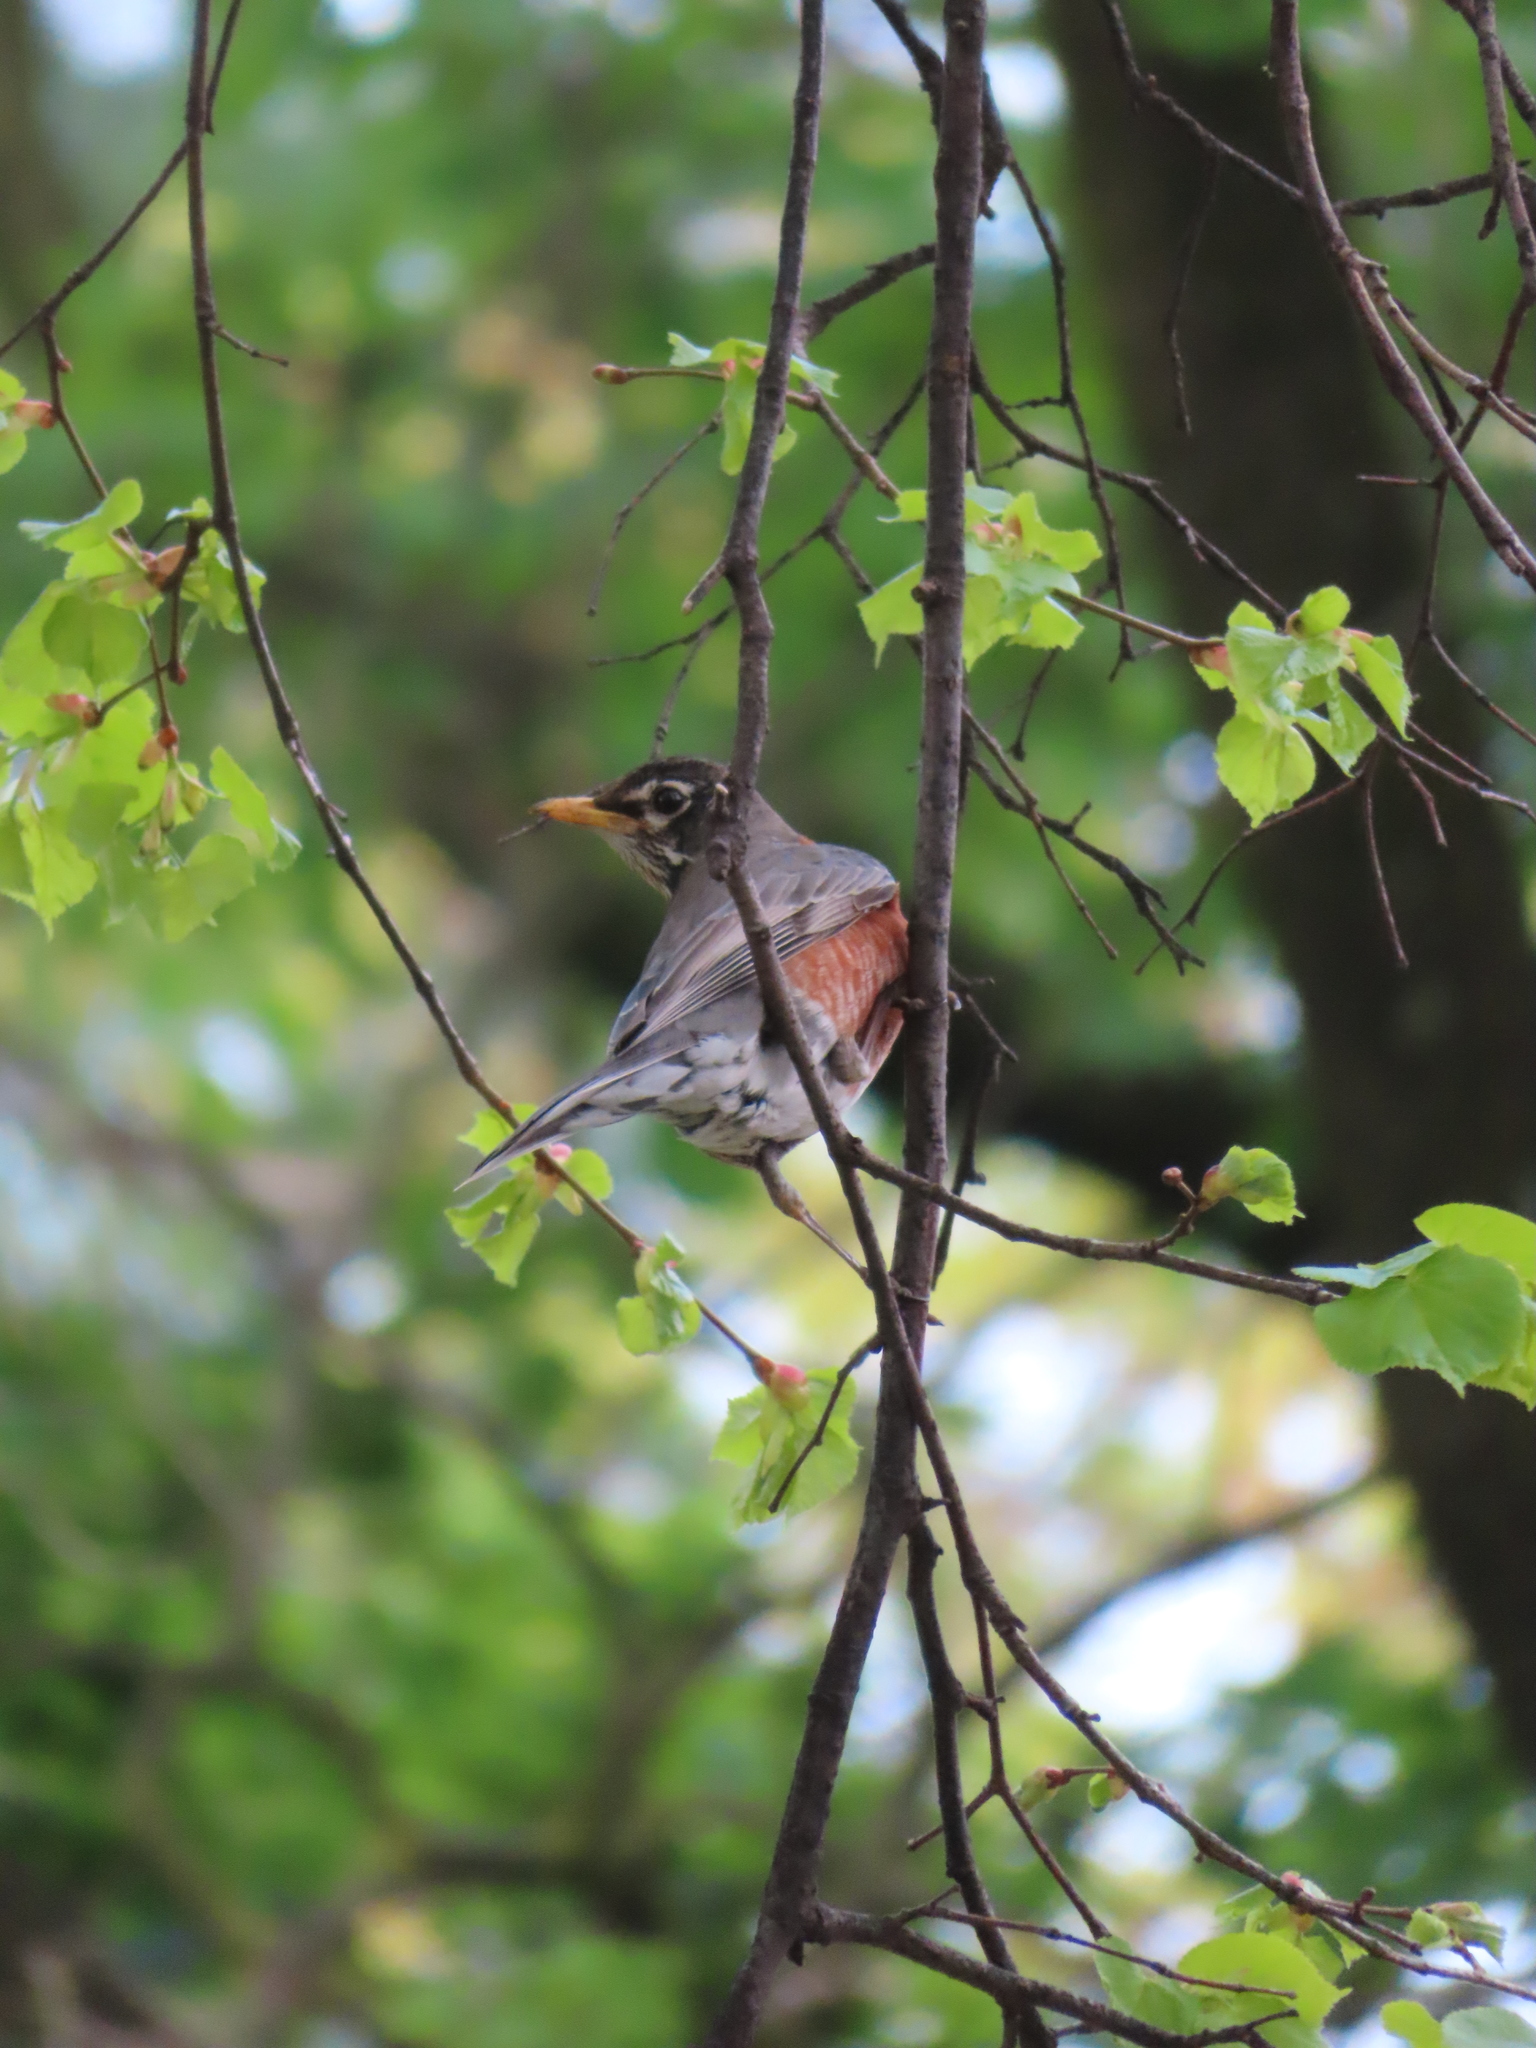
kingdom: Animalia
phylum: Chordata
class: Aves
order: Passeriformes
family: Turdidae
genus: Turdus
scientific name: Turdus migratorius
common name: American robin
